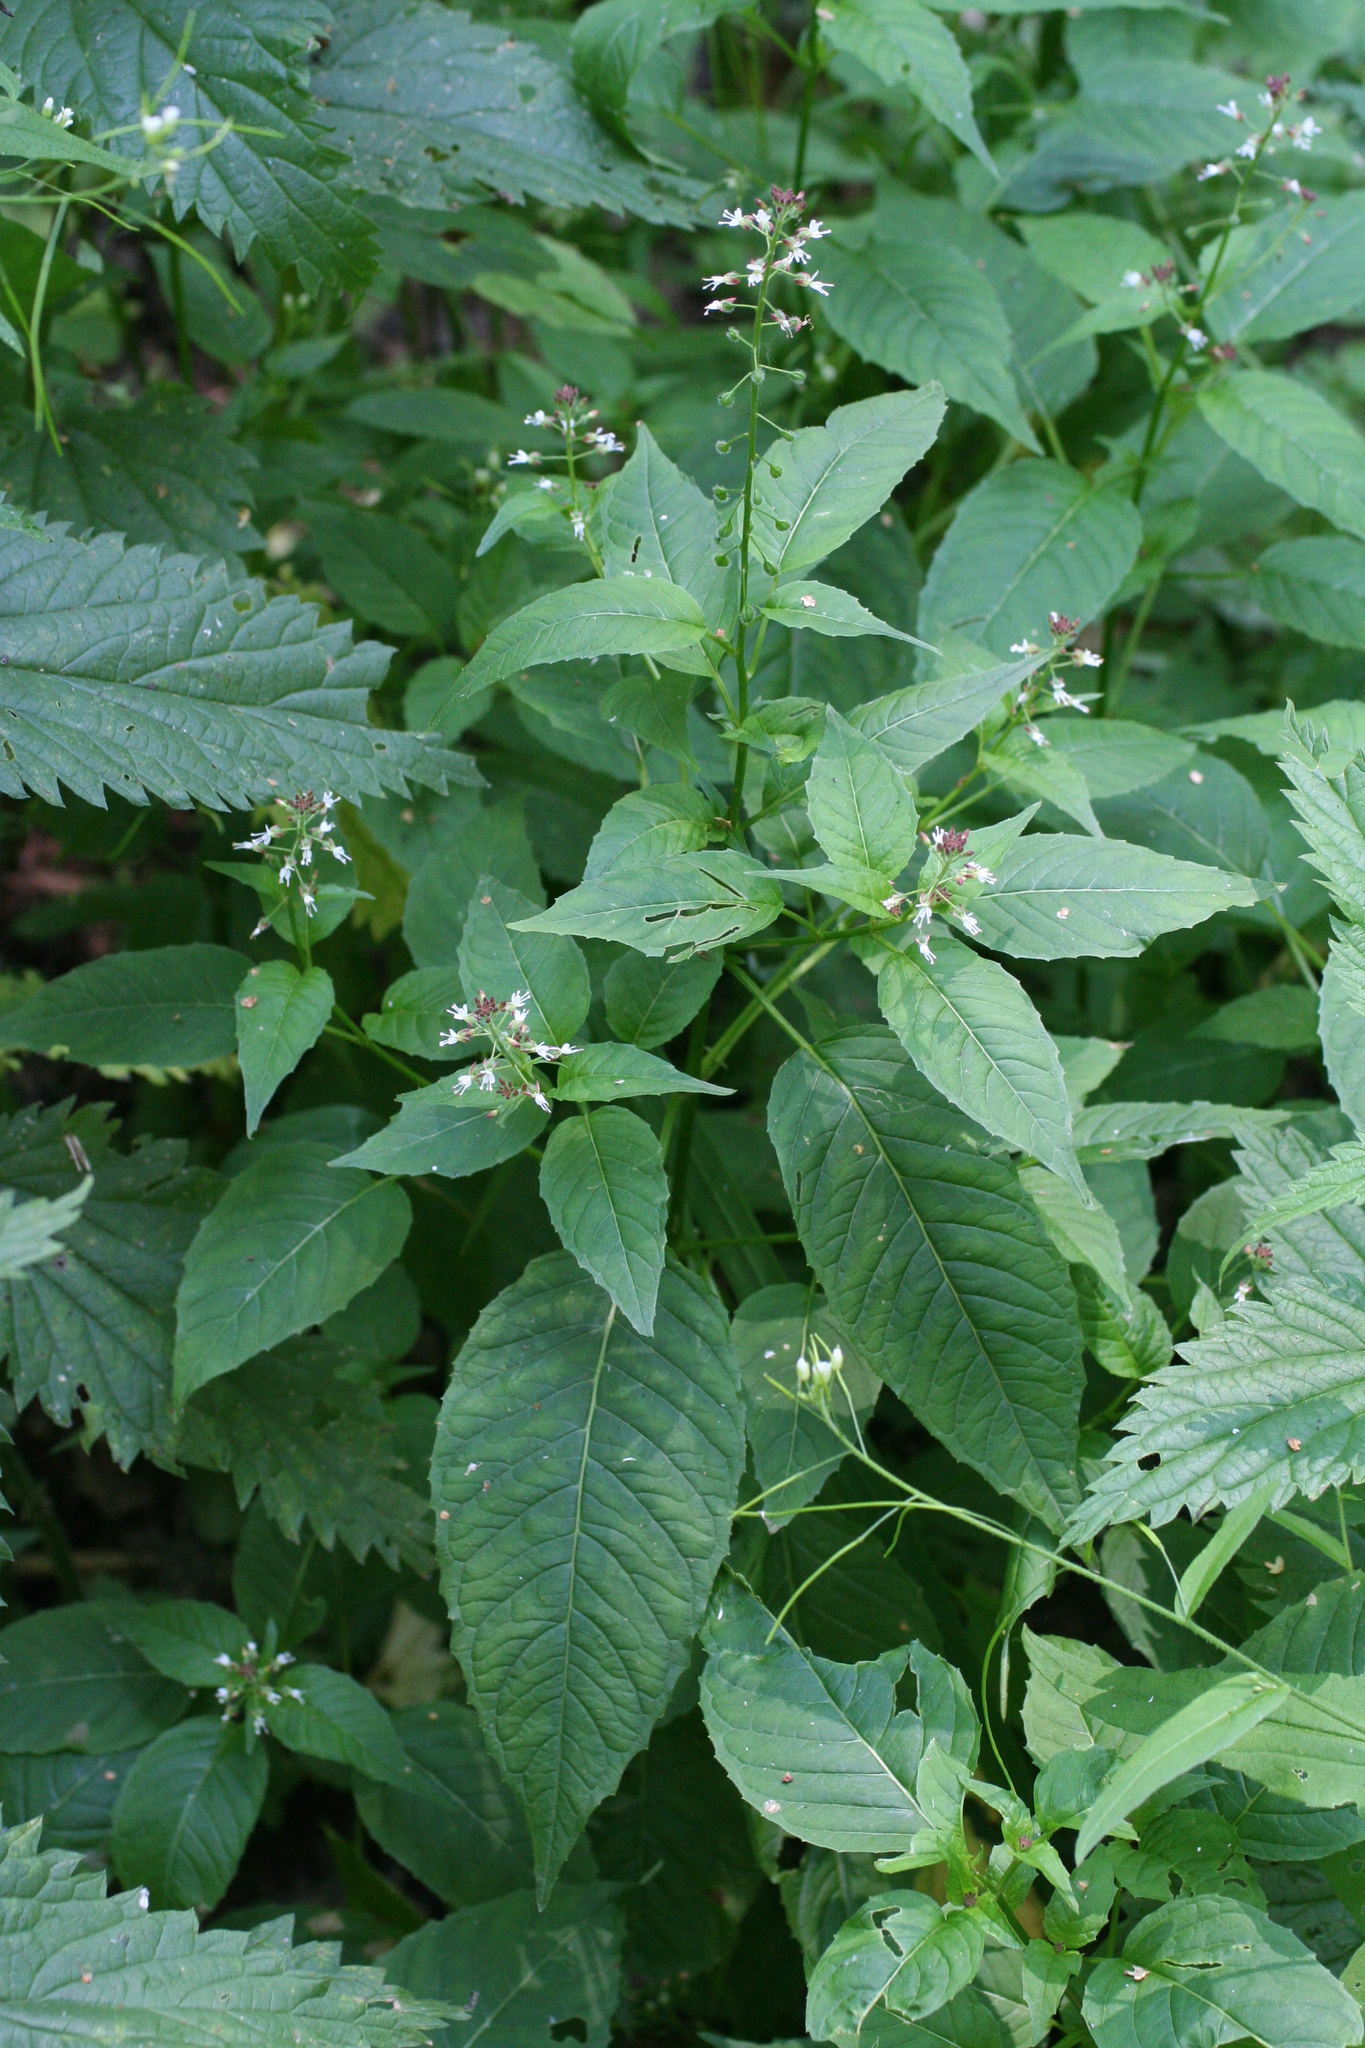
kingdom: Plantae
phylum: Tracheophyta
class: Magnoliopsida
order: Myrtales
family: Onagraceae
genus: Circaea
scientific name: Circaea canadensis
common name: Broad-leaved enchanter's nightshade
